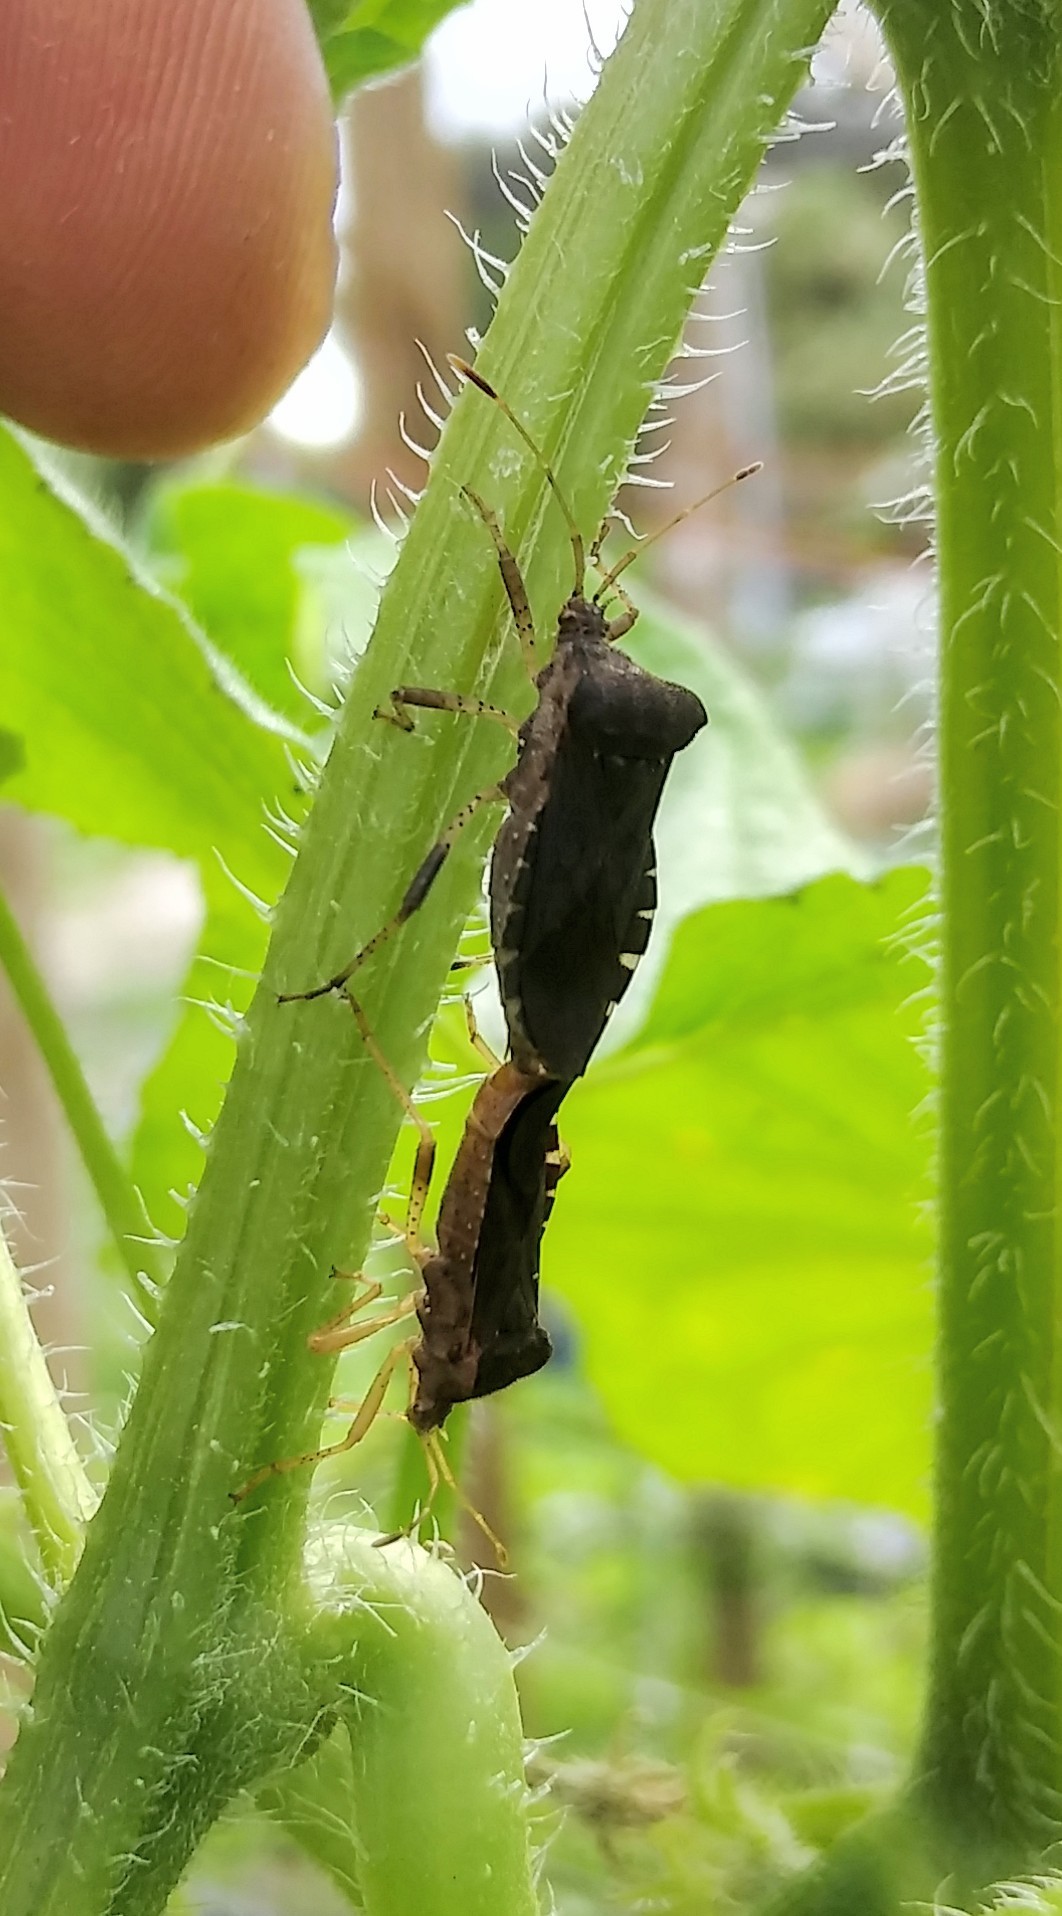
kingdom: Animalia
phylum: Arthropoda
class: Insecta
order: Hemiptera
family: Coreidae
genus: Anasa
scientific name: Anasa scorbutica
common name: Squash bug
